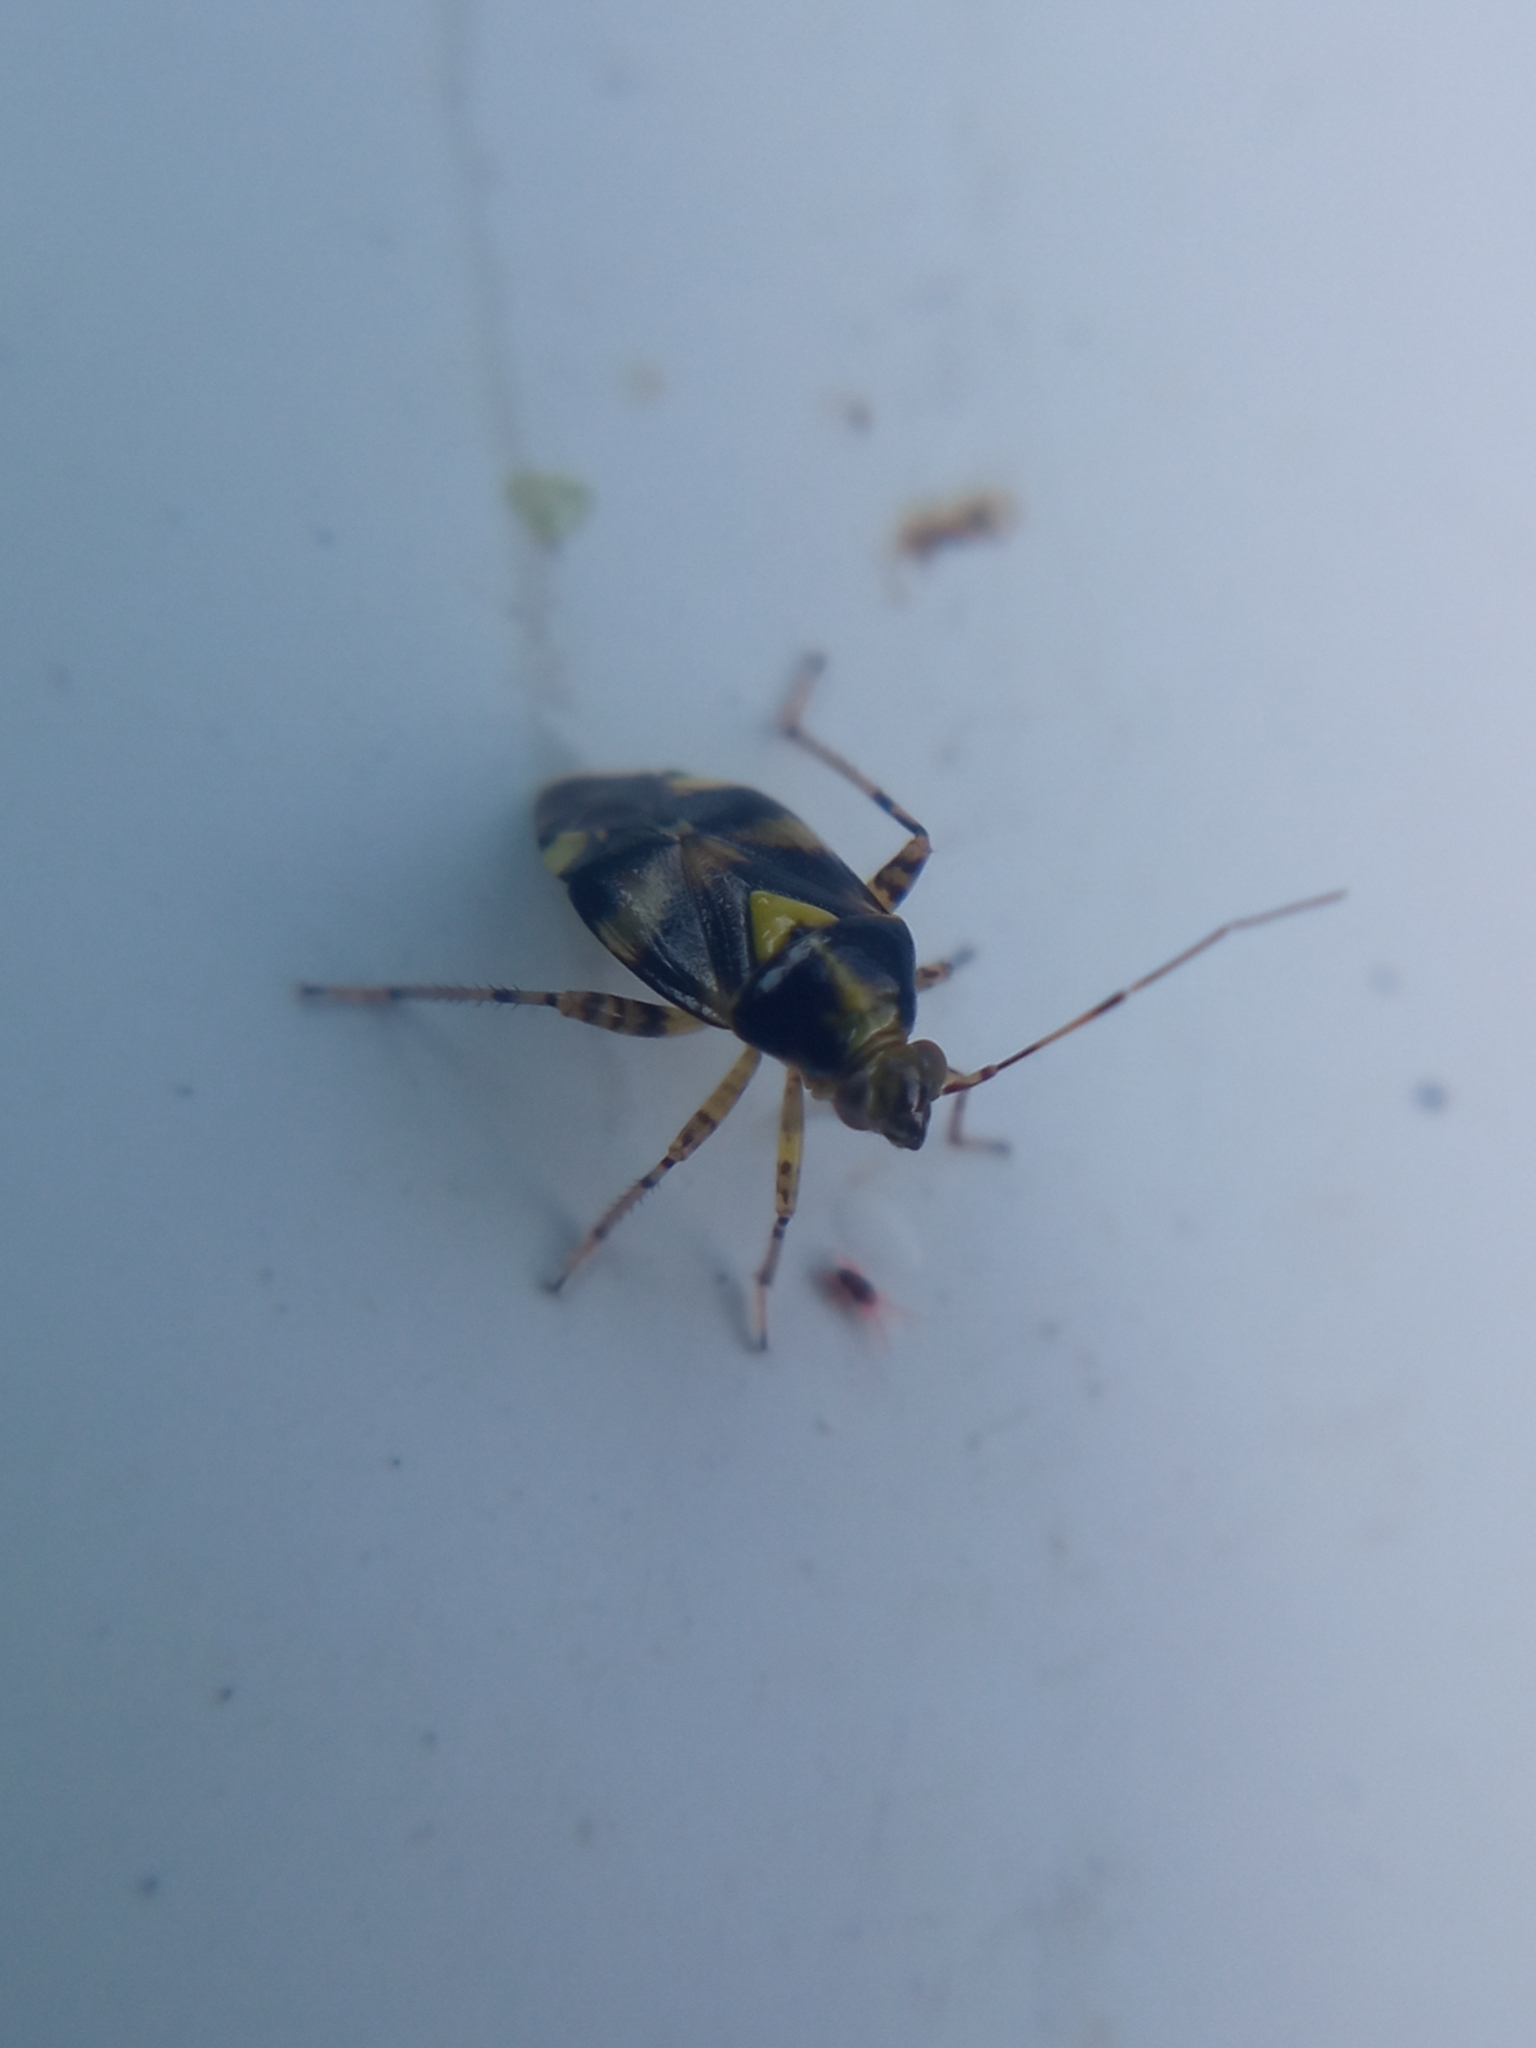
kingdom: Animalia
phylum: Arthropoda
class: Insecta
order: Hemiptera
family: Miridae
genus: Liocoris
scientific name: Liocoris tripustulatus
